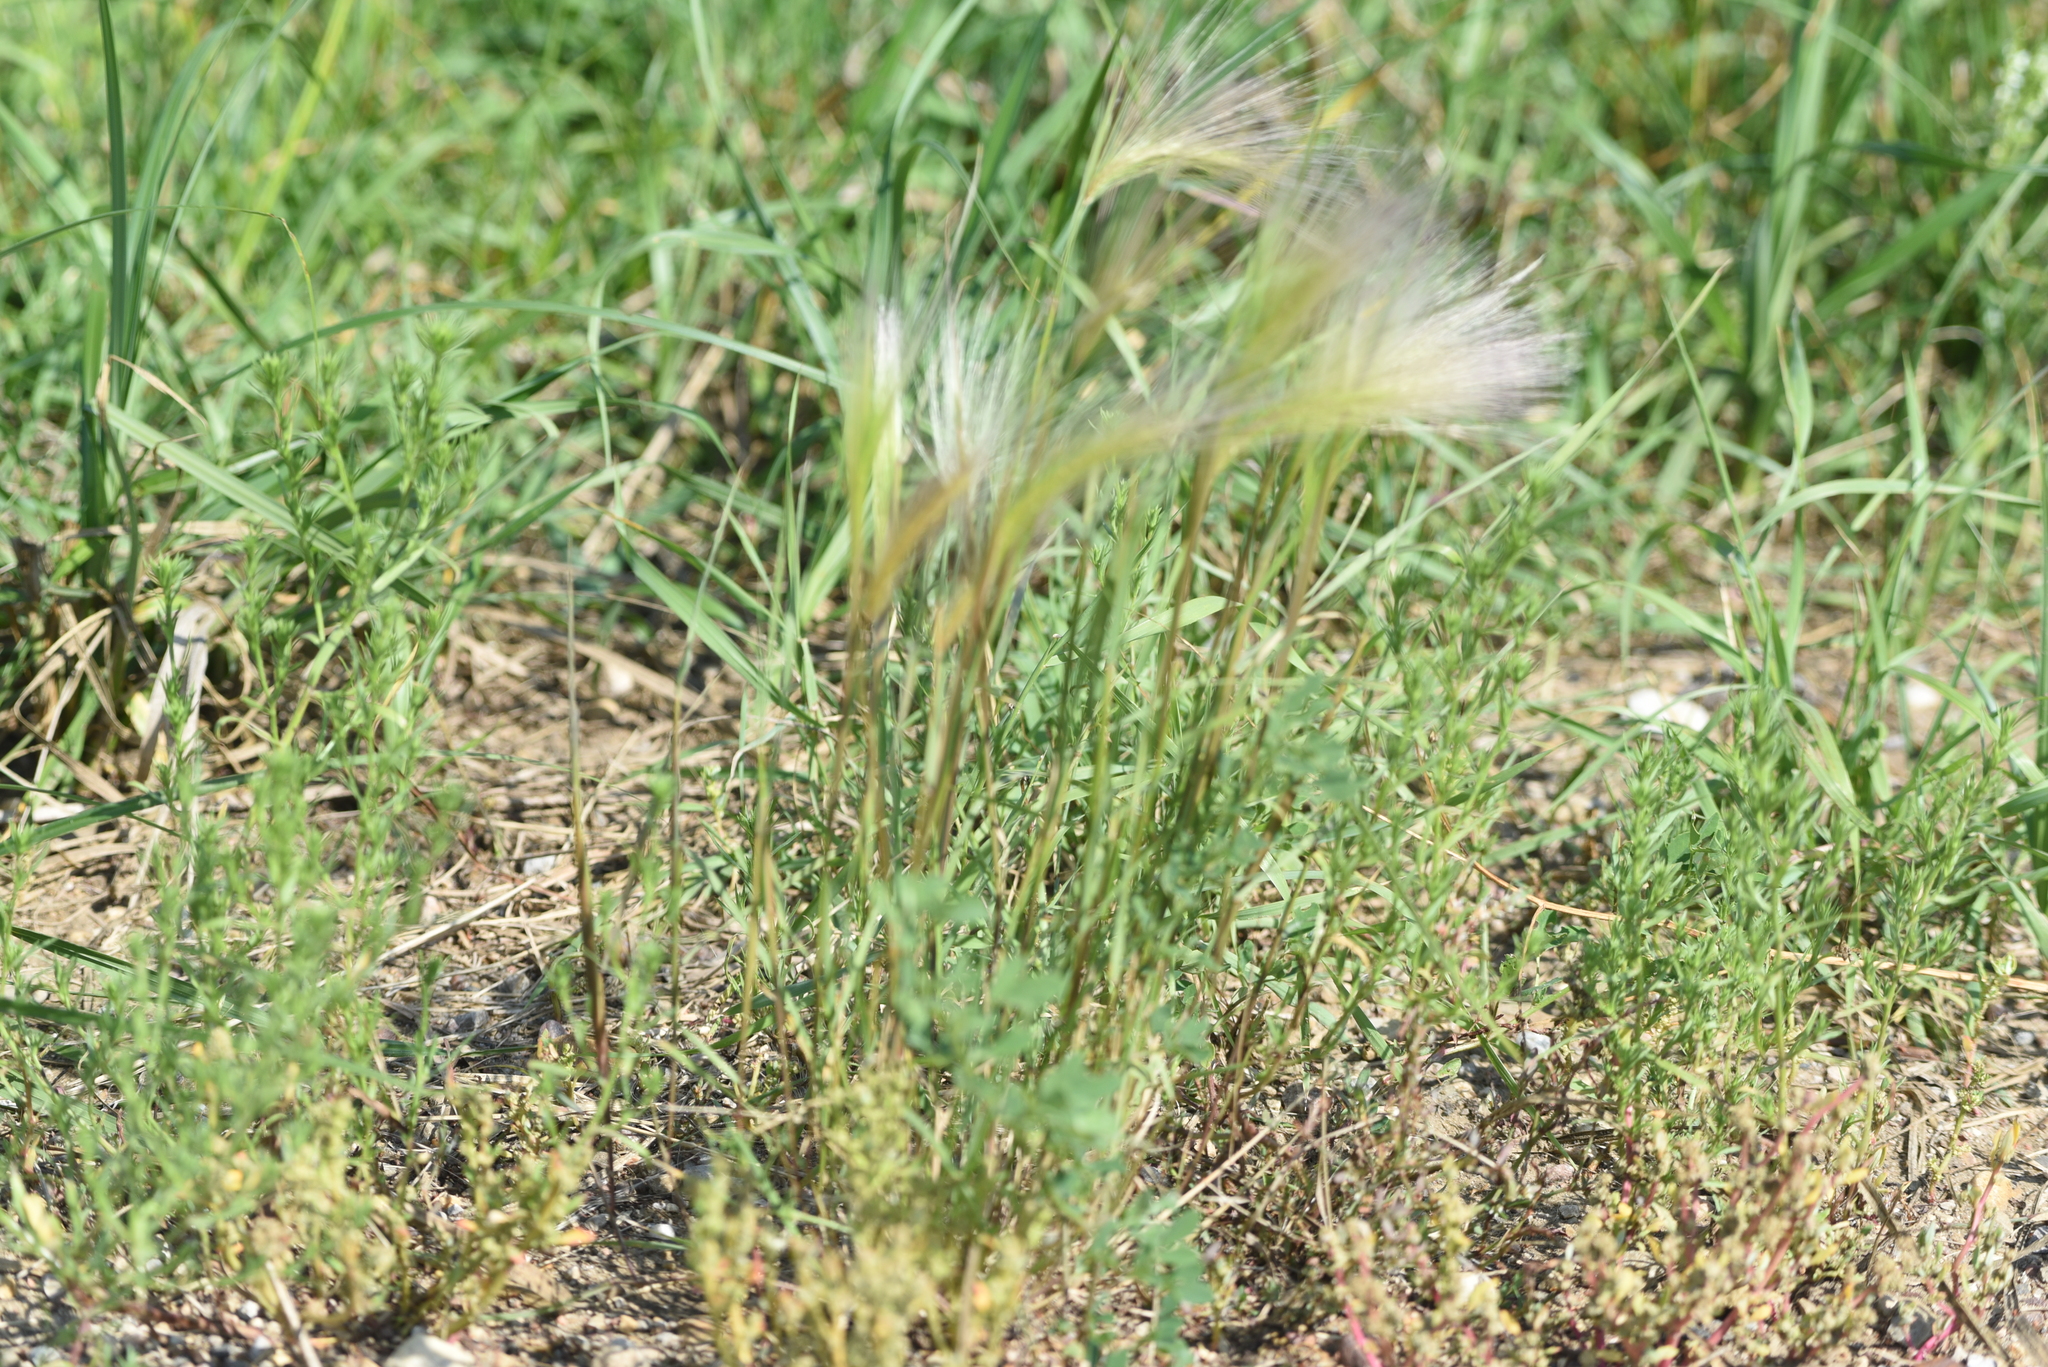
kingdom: Plantae
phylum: Tracheophyta
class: Liliopsida
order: Poales
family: Poaceae
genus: Hordeum
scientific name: Hordeum jubatum
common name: Foxtail barley
